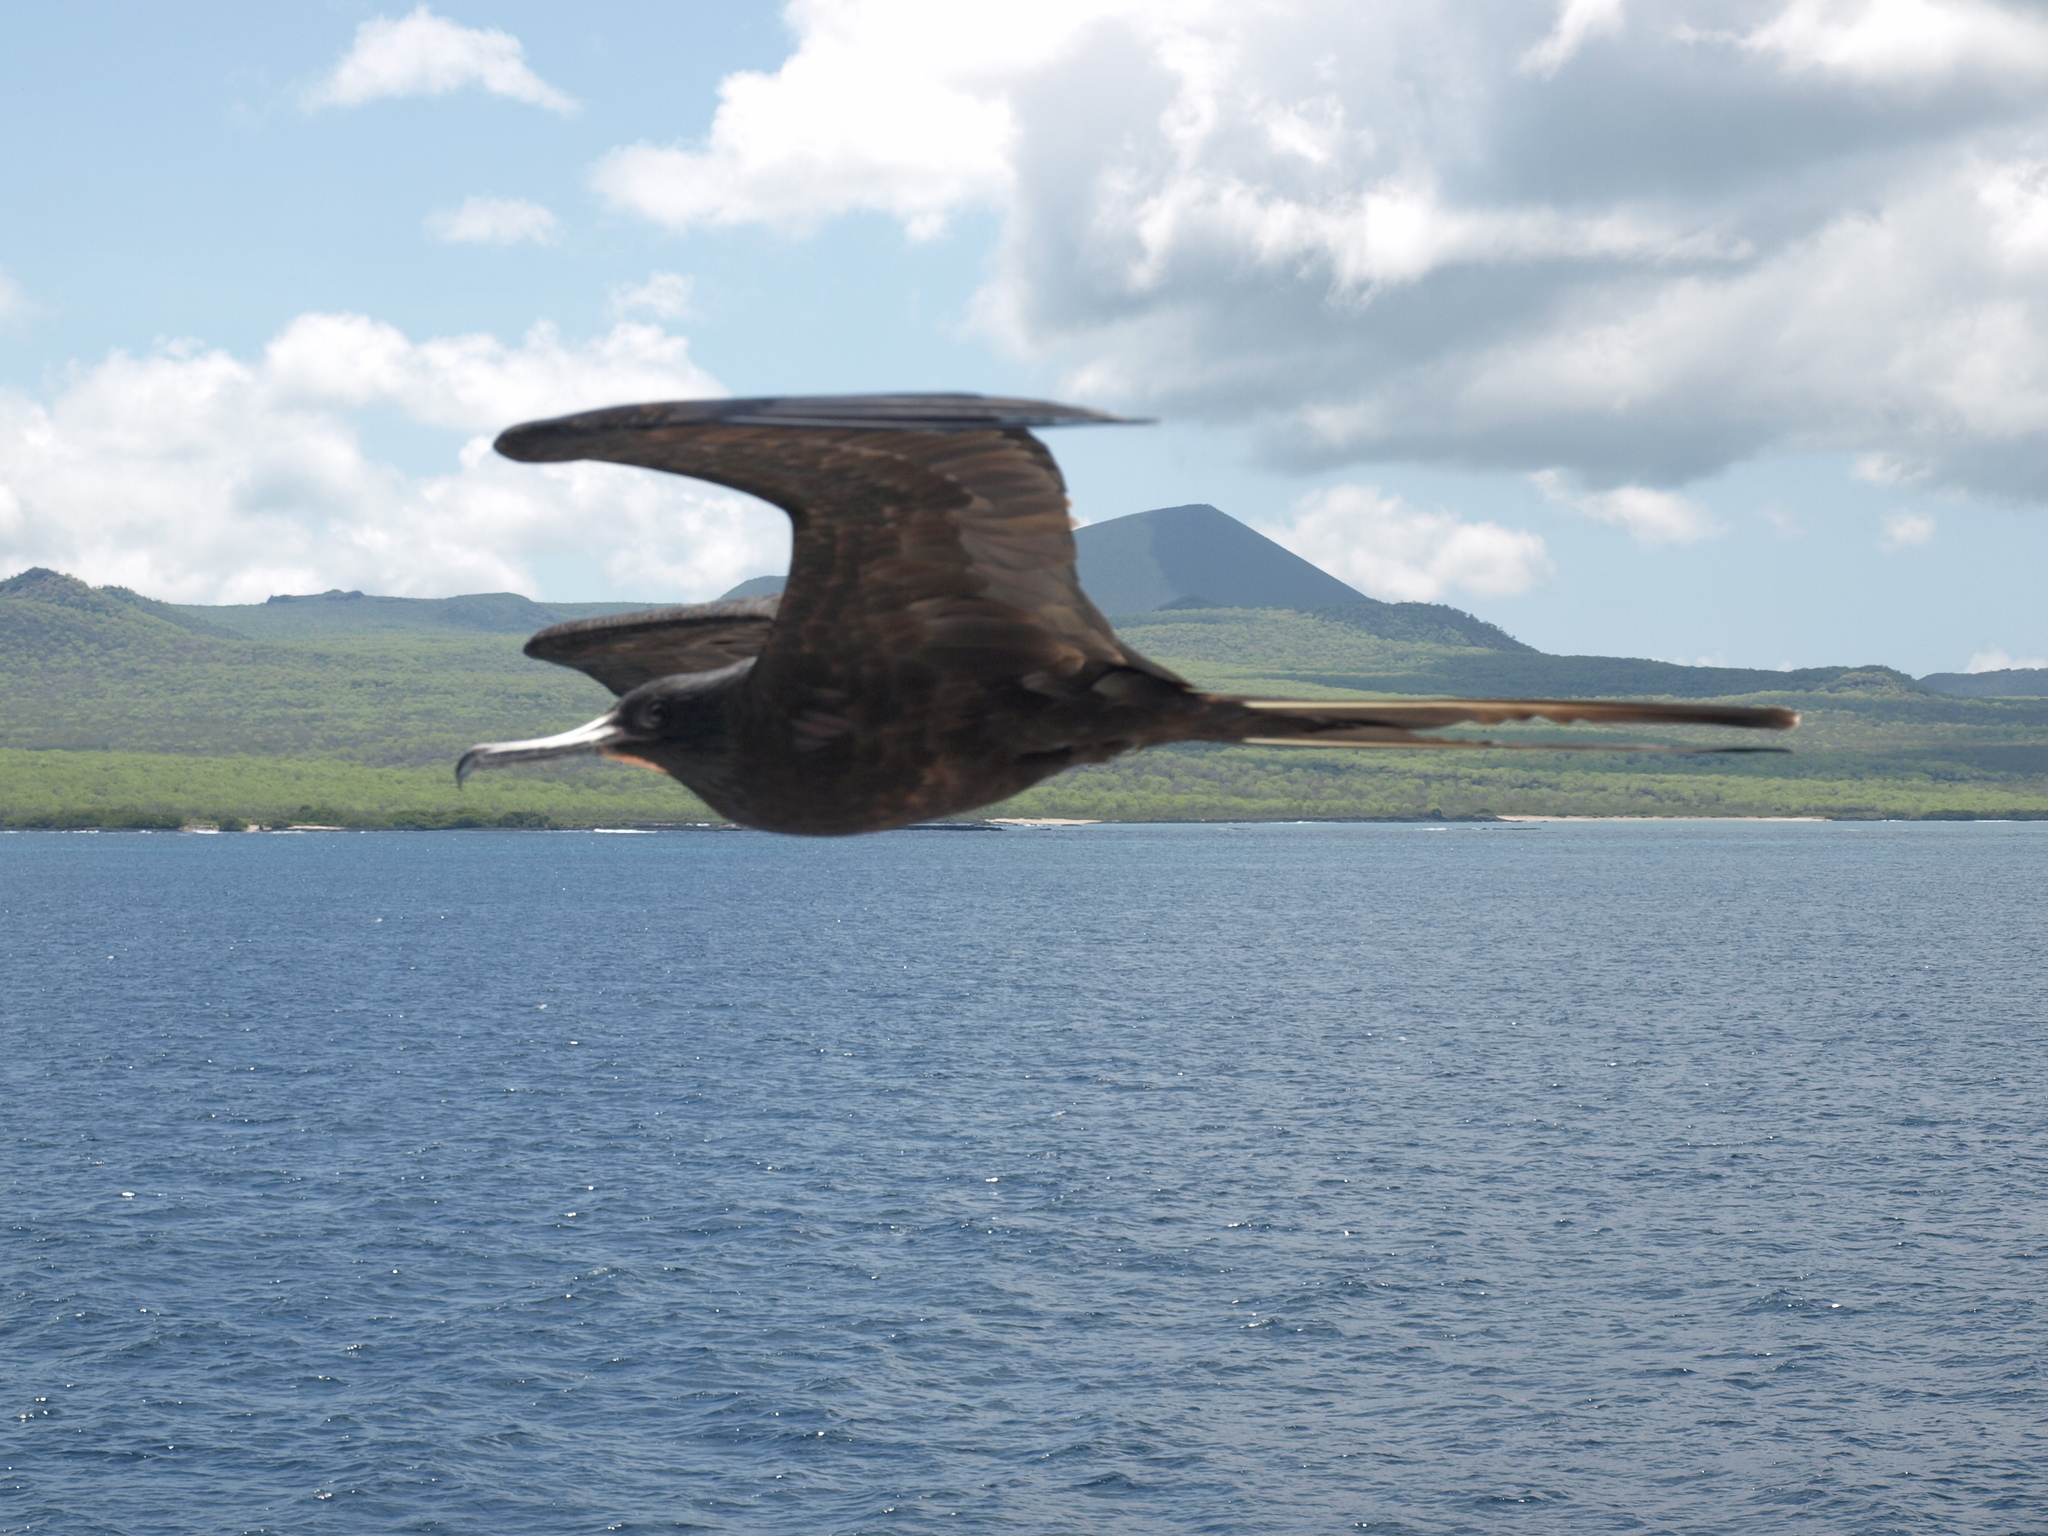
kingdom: Animalia
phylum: Chordata
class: Aves
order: Suliformes
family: Fregatidae
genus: Fregata
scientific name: Fregata magnificens
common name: Magnificent frigatebird
